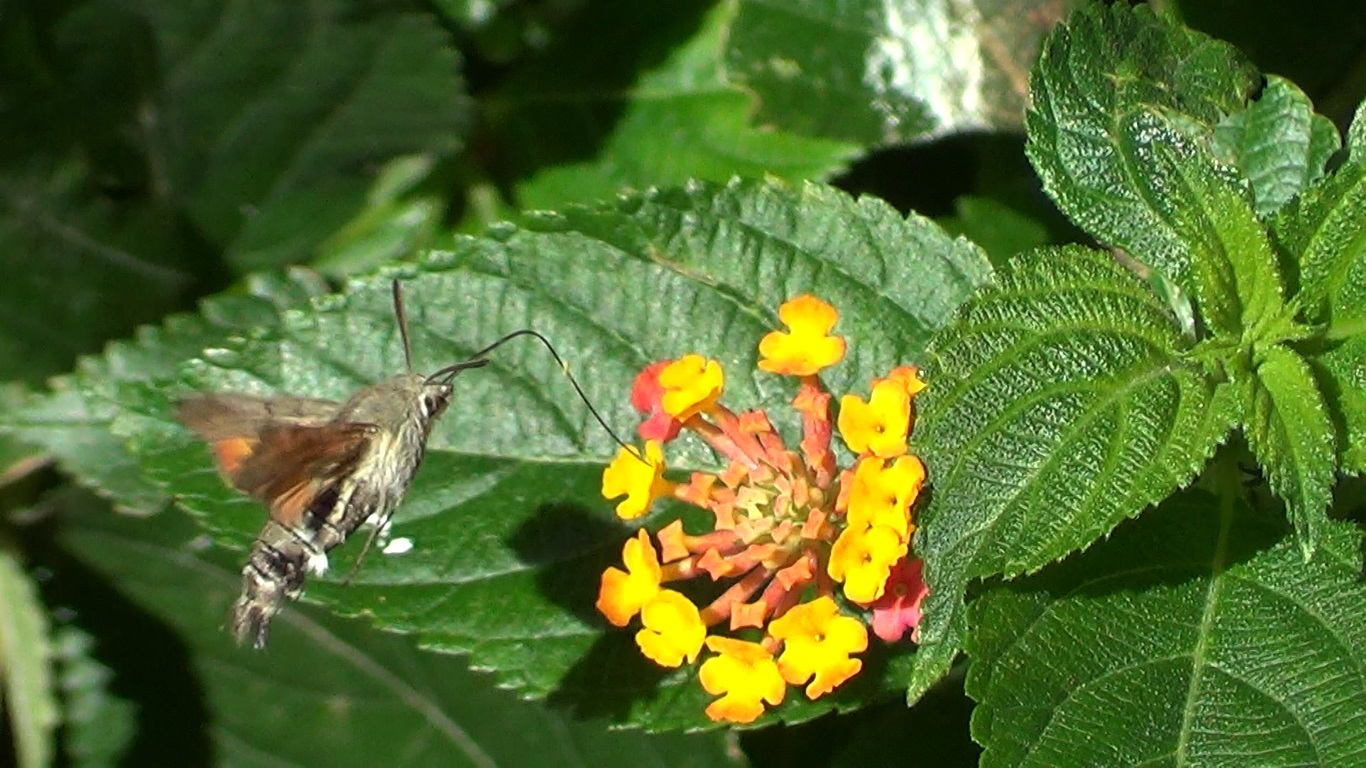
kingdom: Animalia
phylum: Arthropoda
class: Insecta
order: Lepidoptera
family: Sphingidae
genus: Macroglossum
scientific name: Macroglossum stellatarum
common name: Humming-bird hawk-moth
